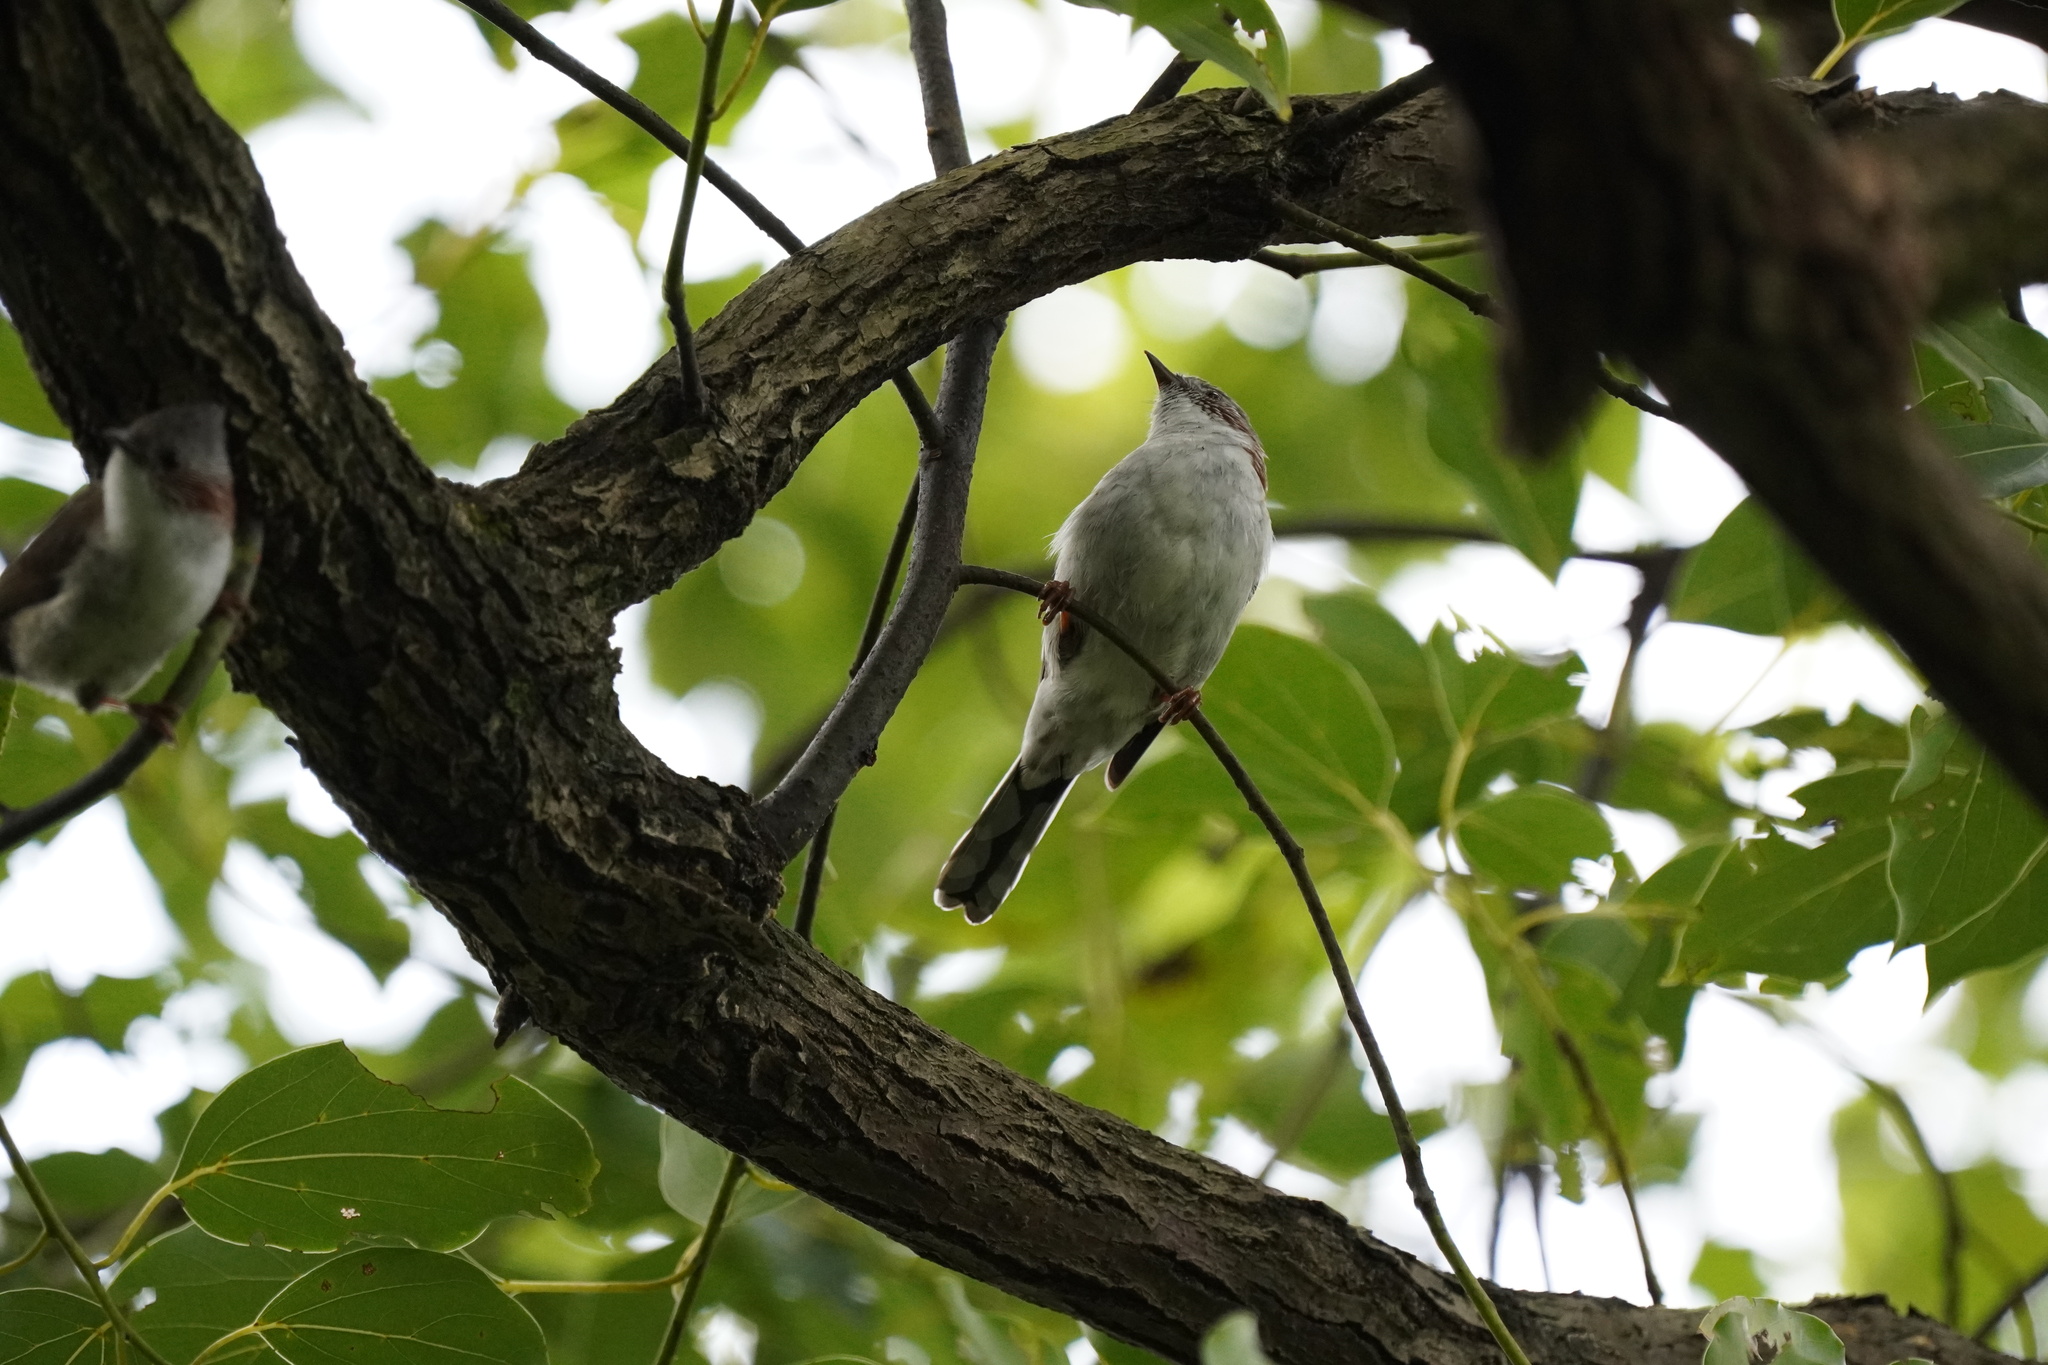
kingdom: Animalia
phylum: Chordata
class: Aves
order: Passeriformes
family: Zosteropidae
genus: Yuhina
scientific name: Yuhina torqueola
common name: Indochinese yuhina
